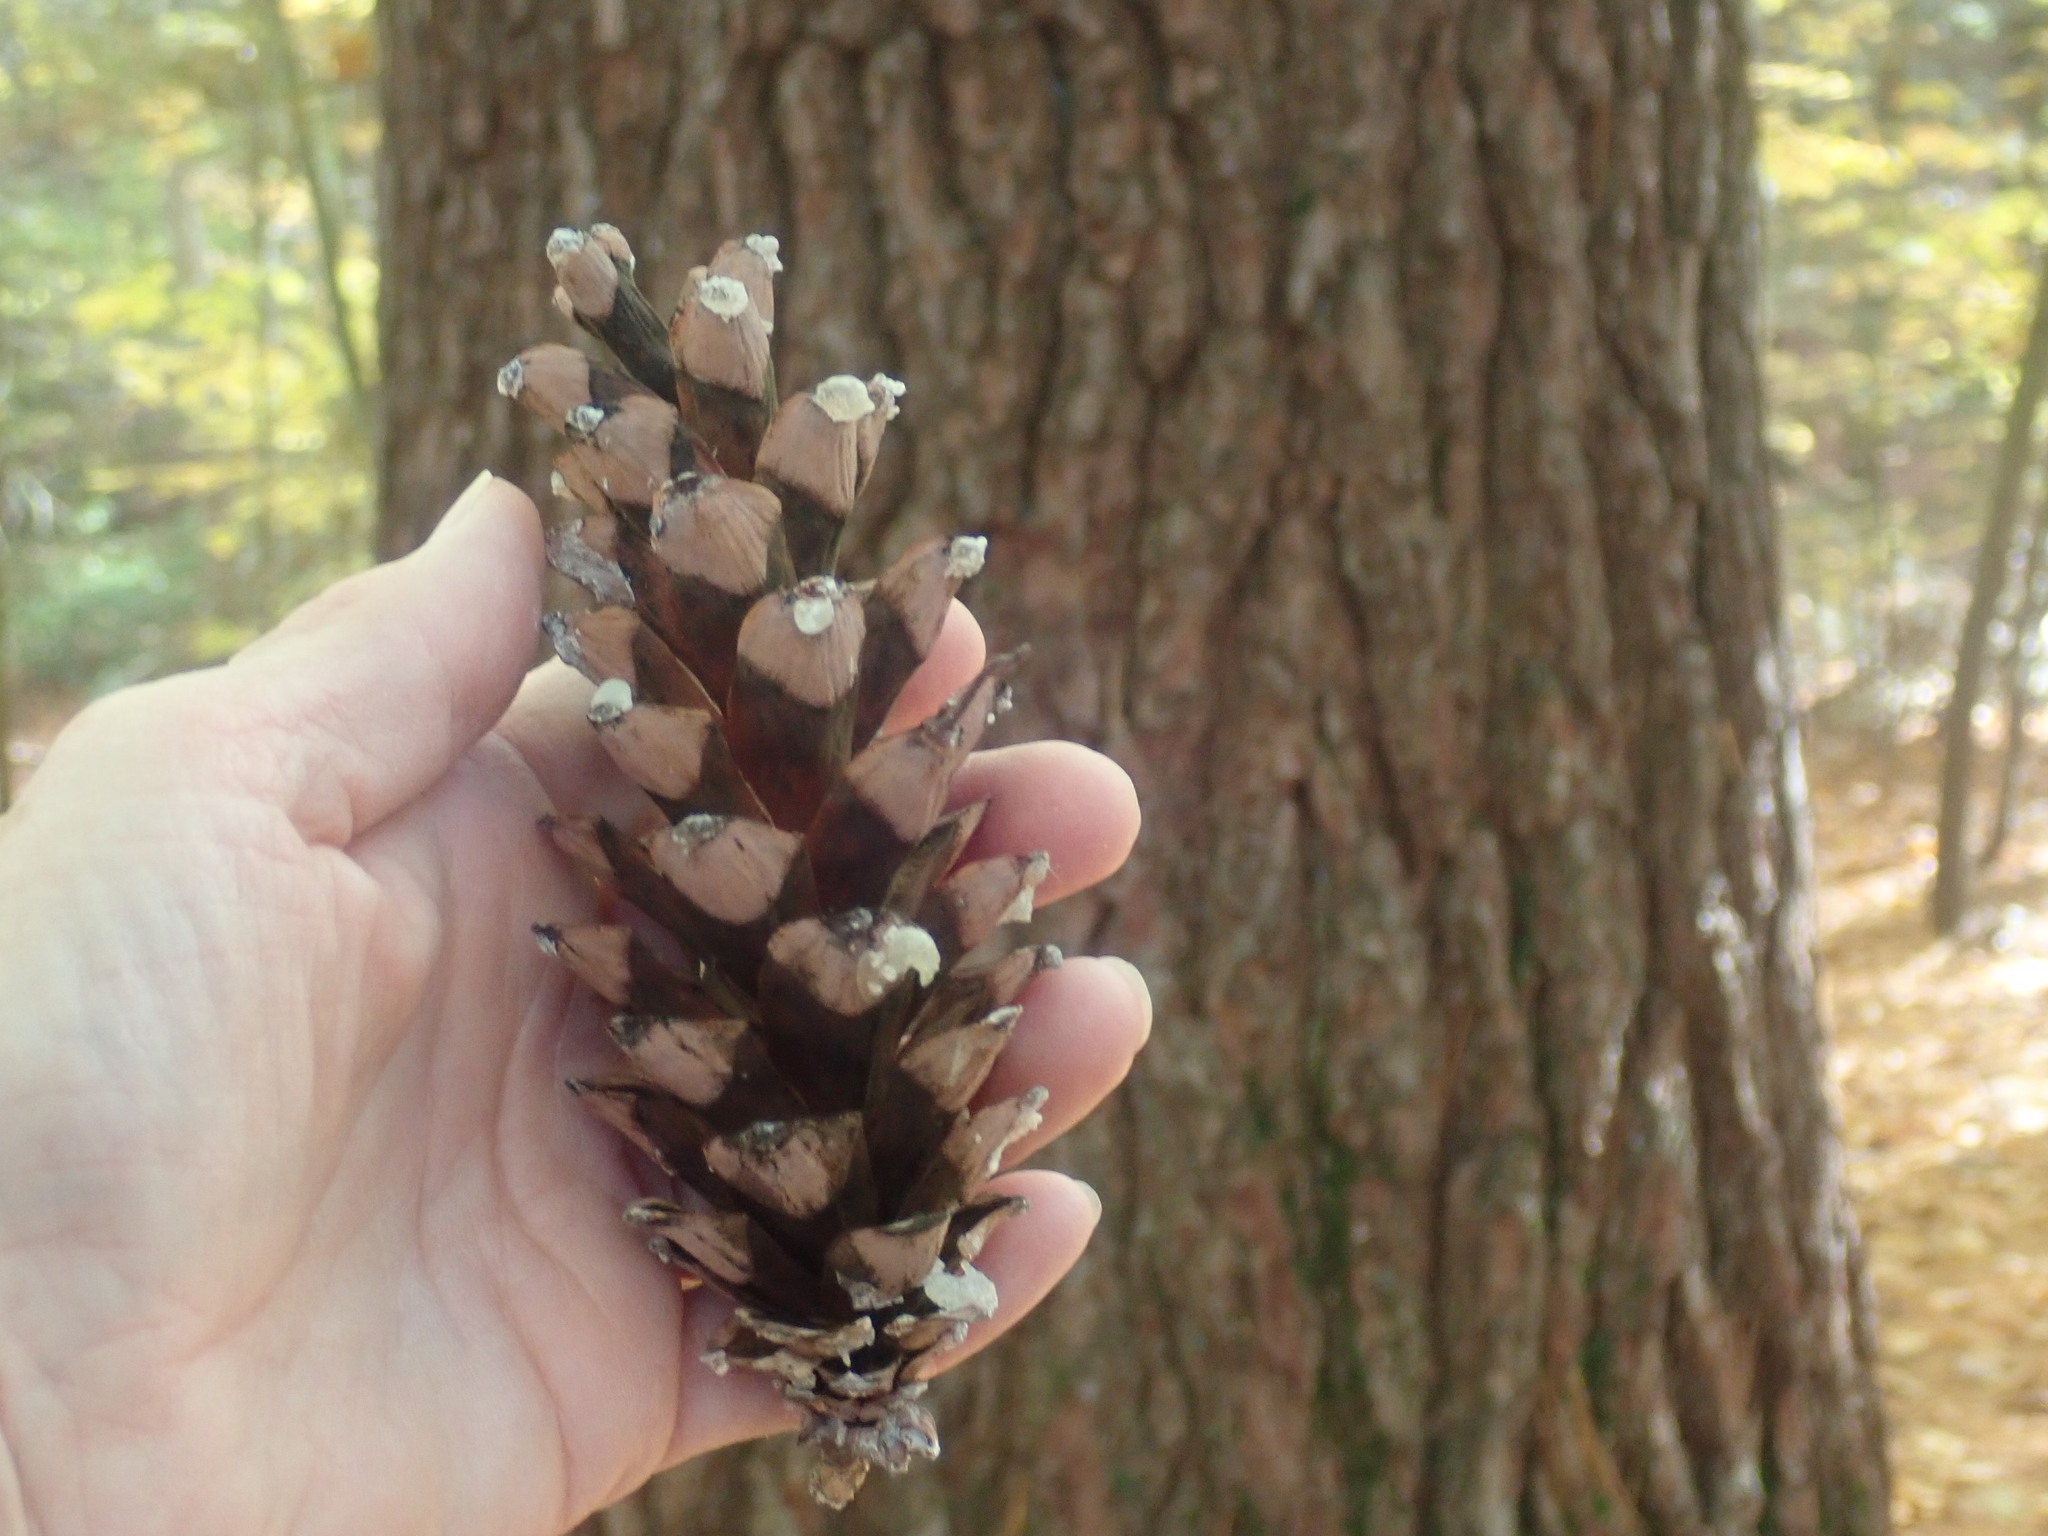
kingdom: Plantae
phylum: Tracheophyta
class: Pinopsida
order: Pinales
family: Pinaceae
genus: Pinus
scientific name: Pinus strobus
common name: Weymouth pine
